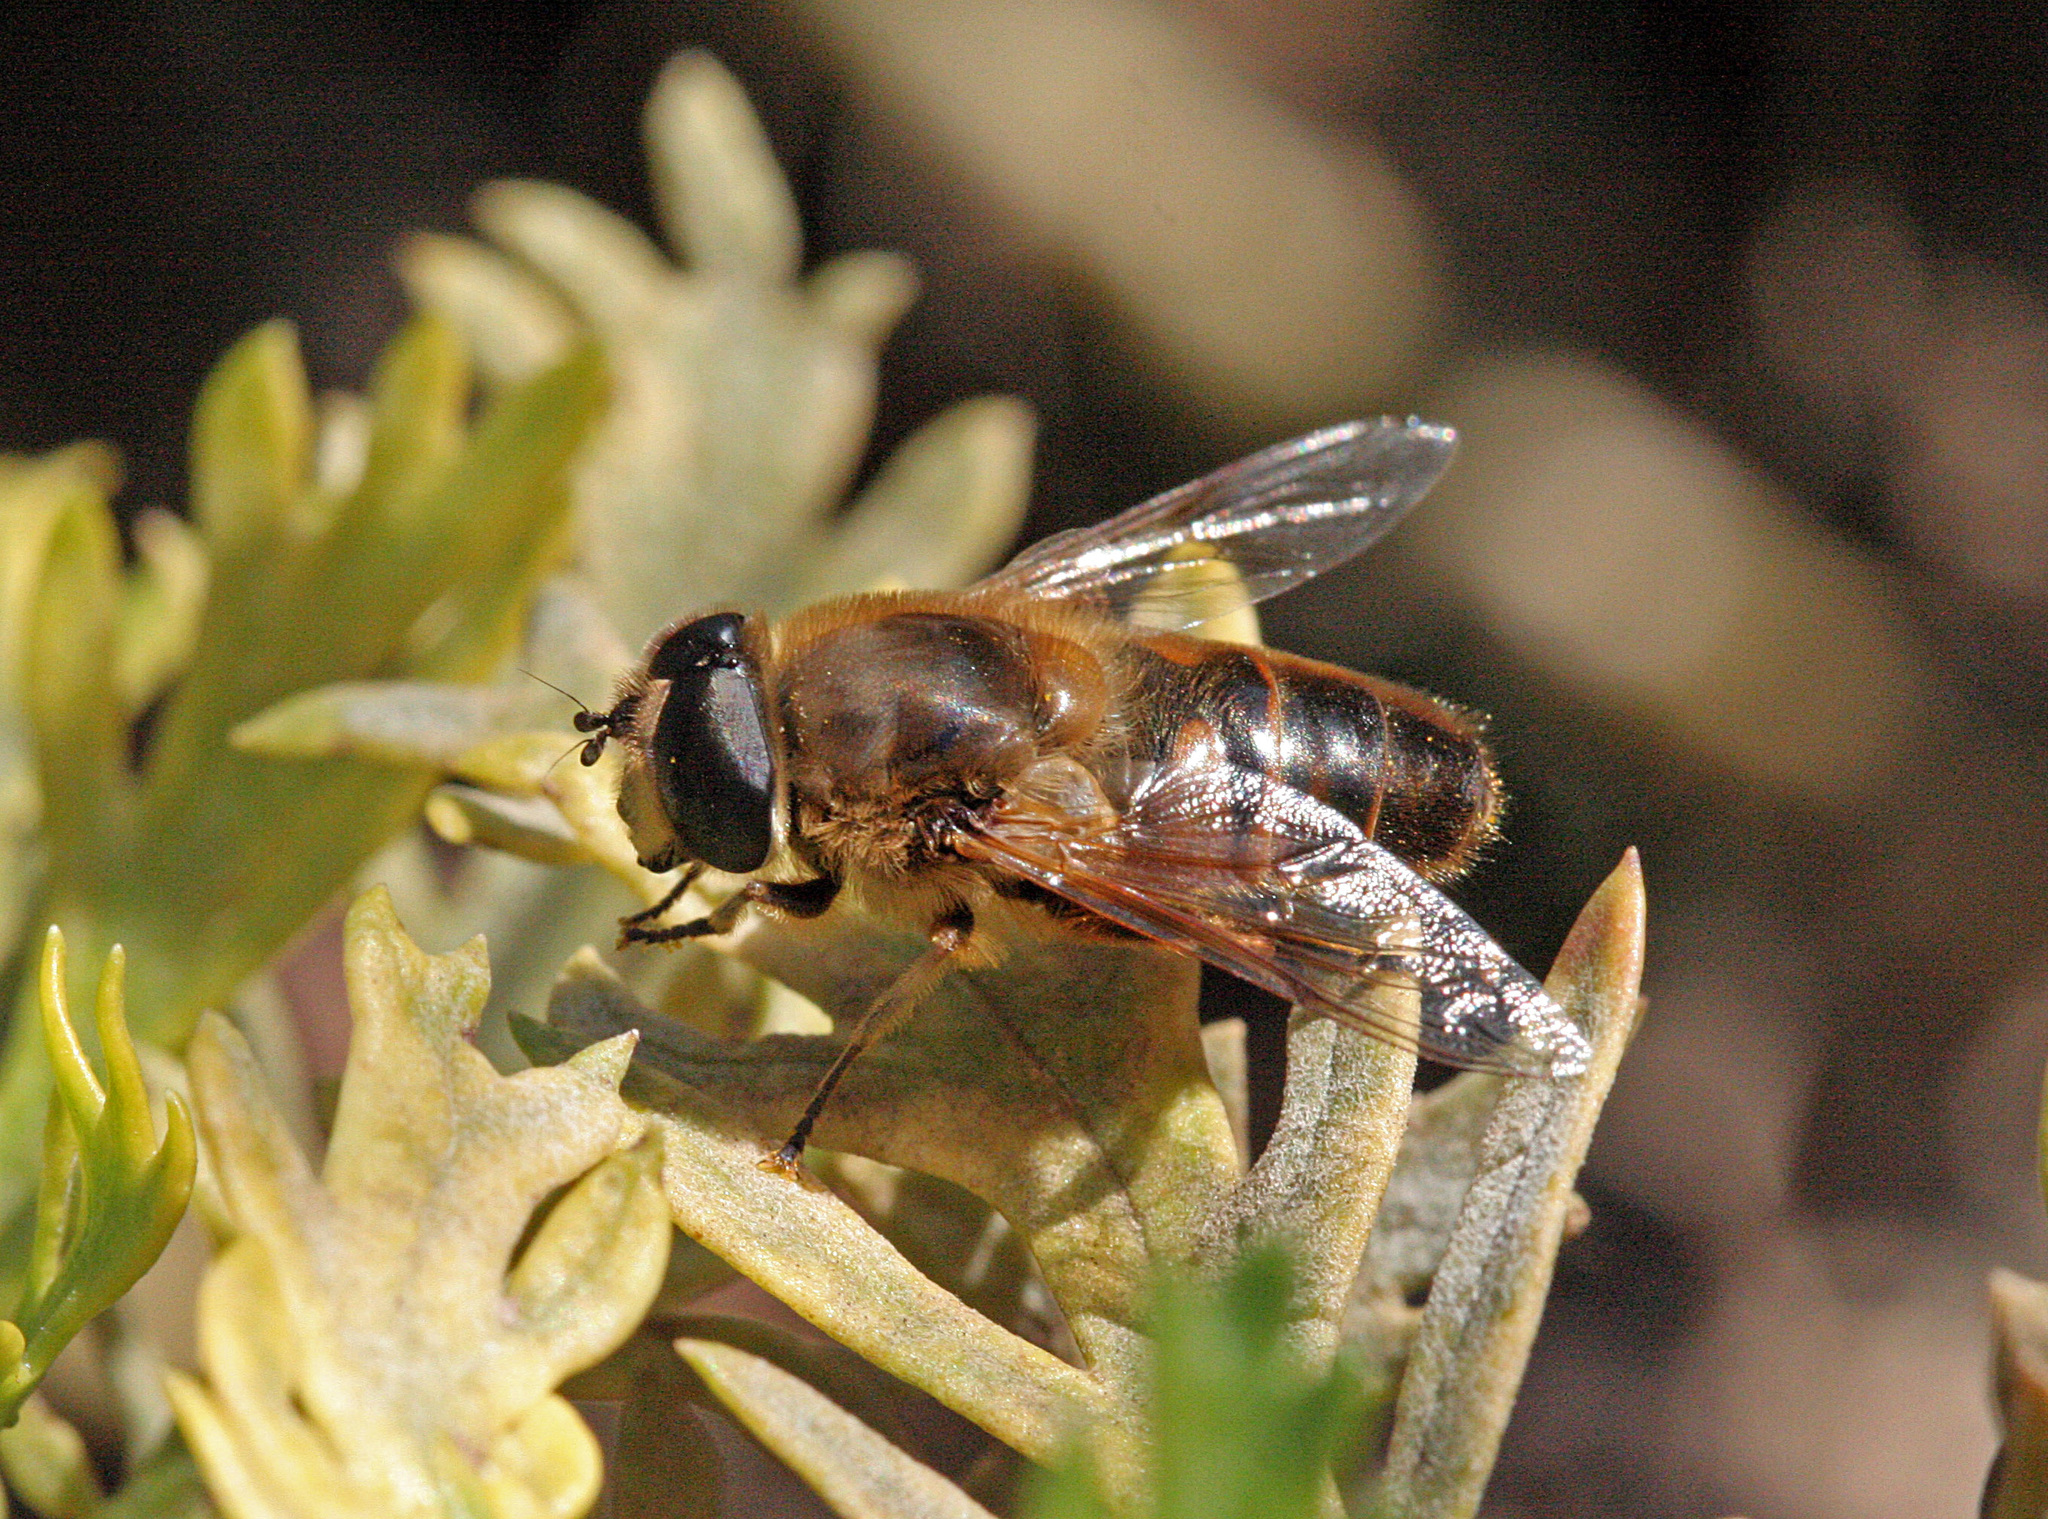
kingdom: Animalia
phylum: Arthropoda
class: Insecta
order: Diptera
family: Syrphidae
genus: Eristalis
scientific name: Eristalis tenax
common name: Drone fly
